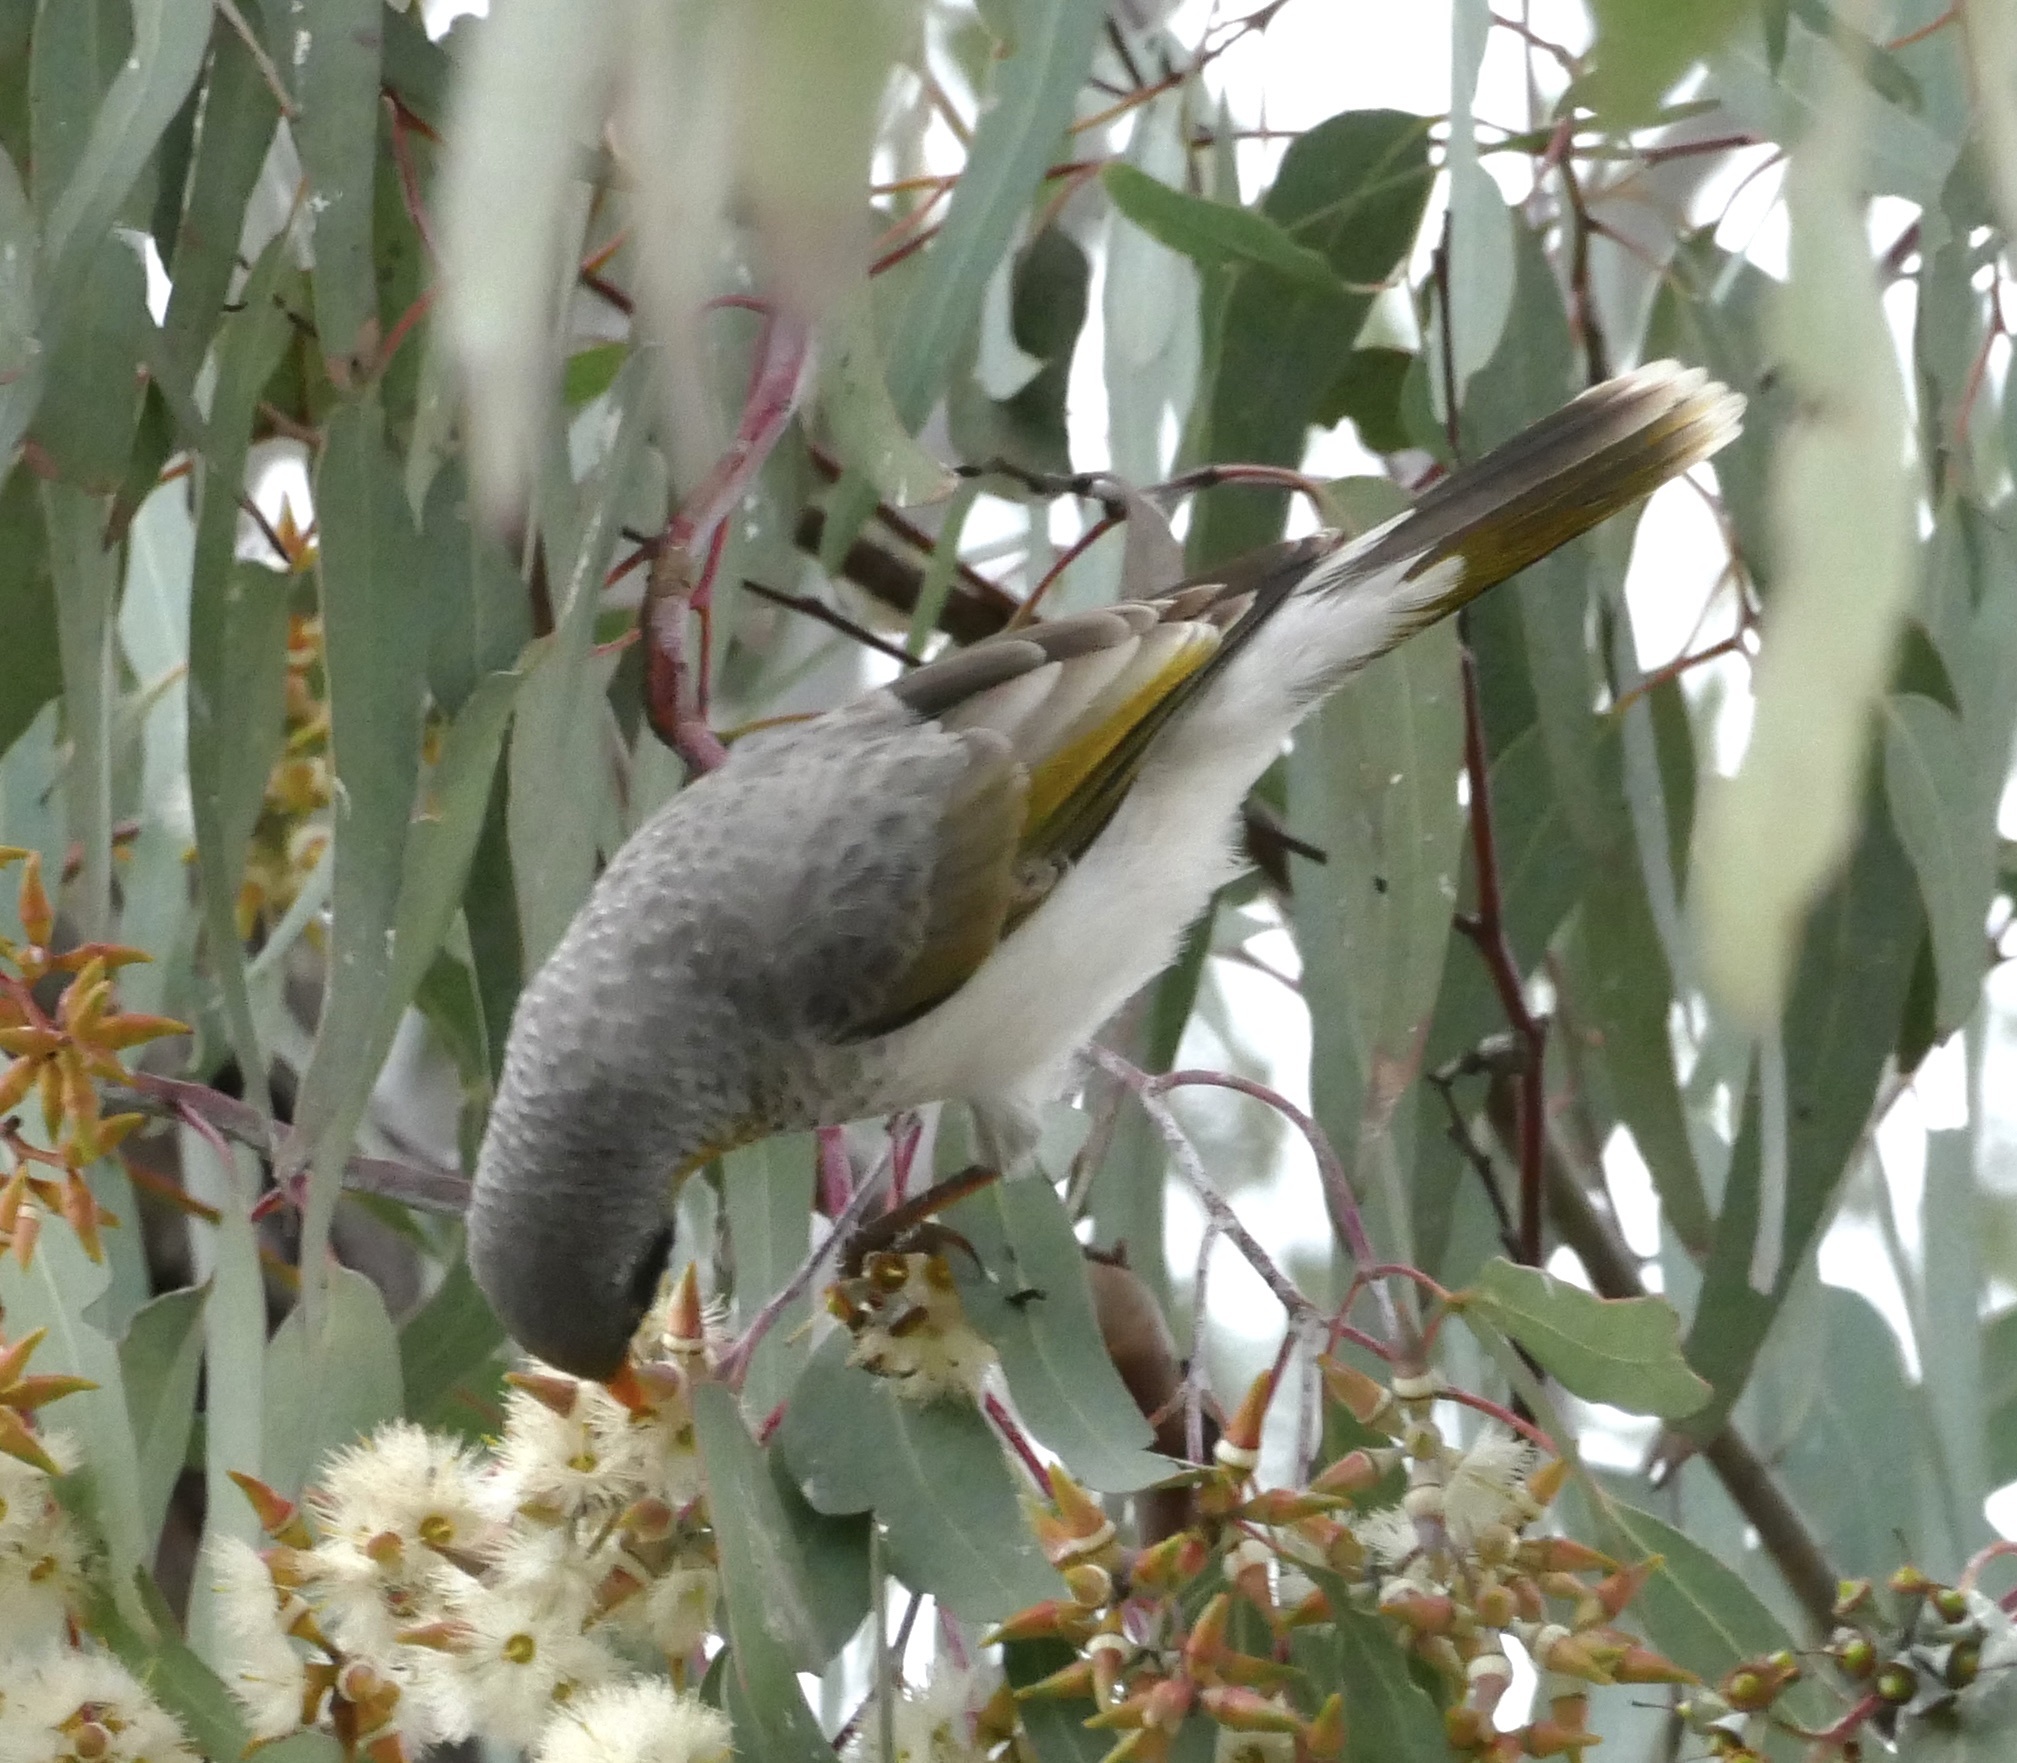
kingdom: Animalia
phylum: Chordata
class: Aves
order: Passeriformes
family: Meliphagidae
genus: Manorina
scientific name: Manorina flavigula
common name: Yellow-throated miner
